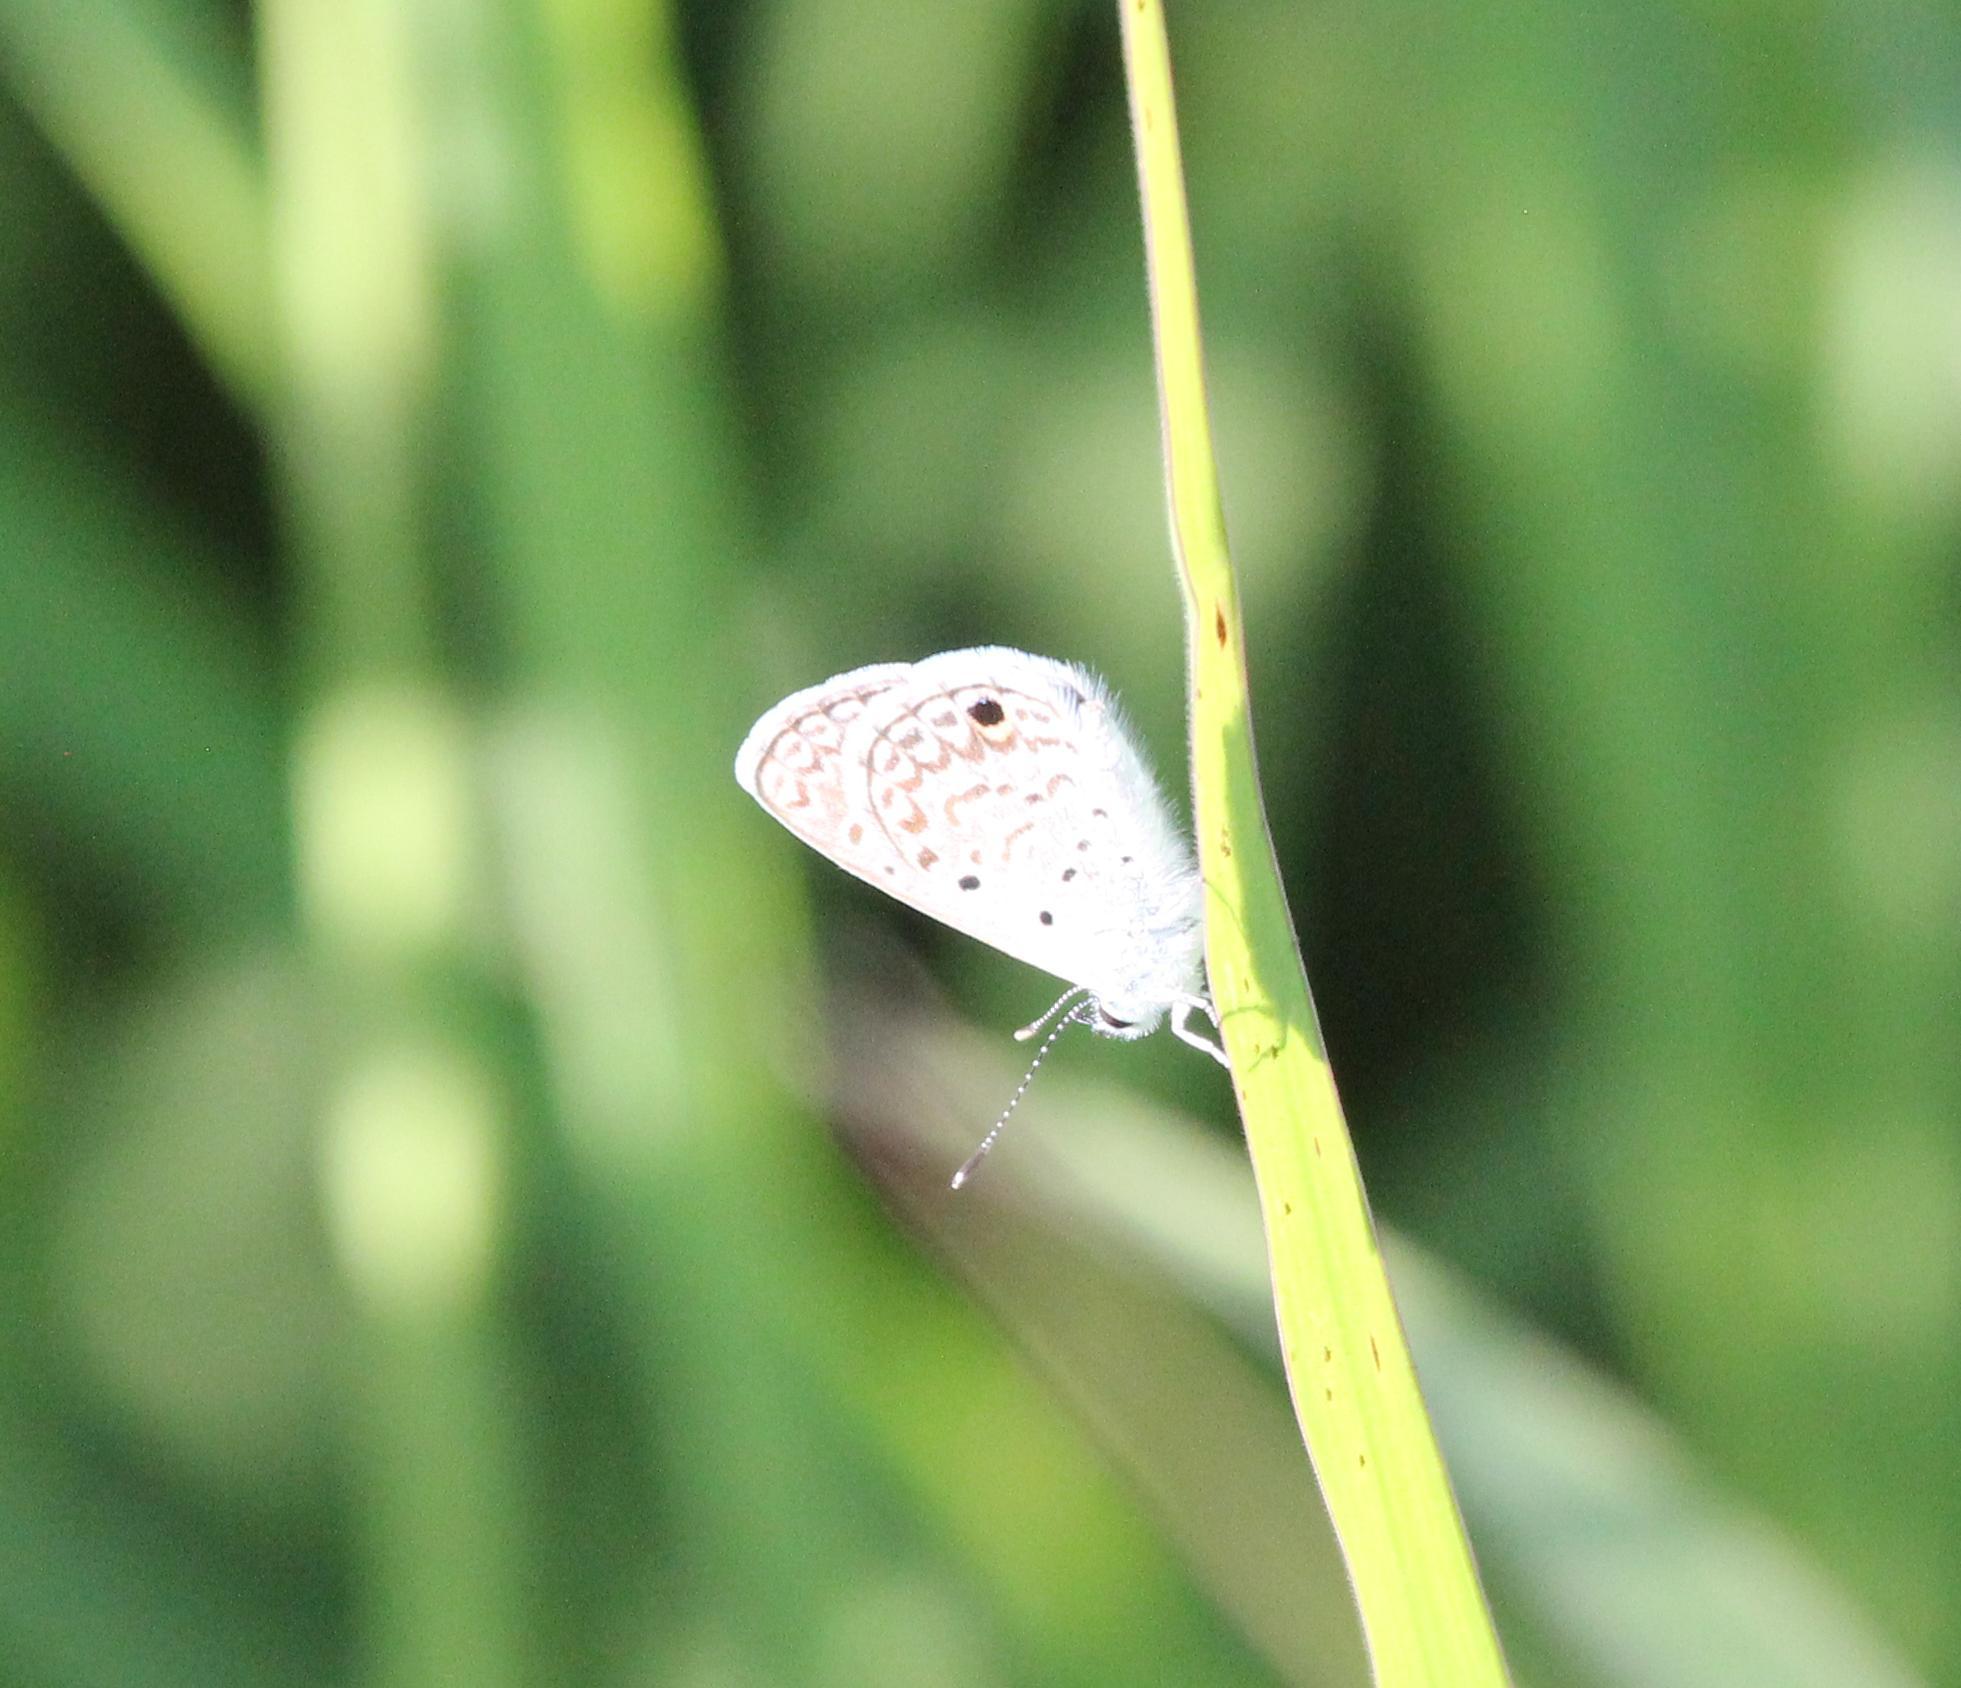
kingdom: Animalia
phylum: Arthropoda
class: Insecta
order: Lepidoptera
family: Lycaenidae
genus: Hemiargus
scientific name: Hemiargus hanno
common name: Common blue
